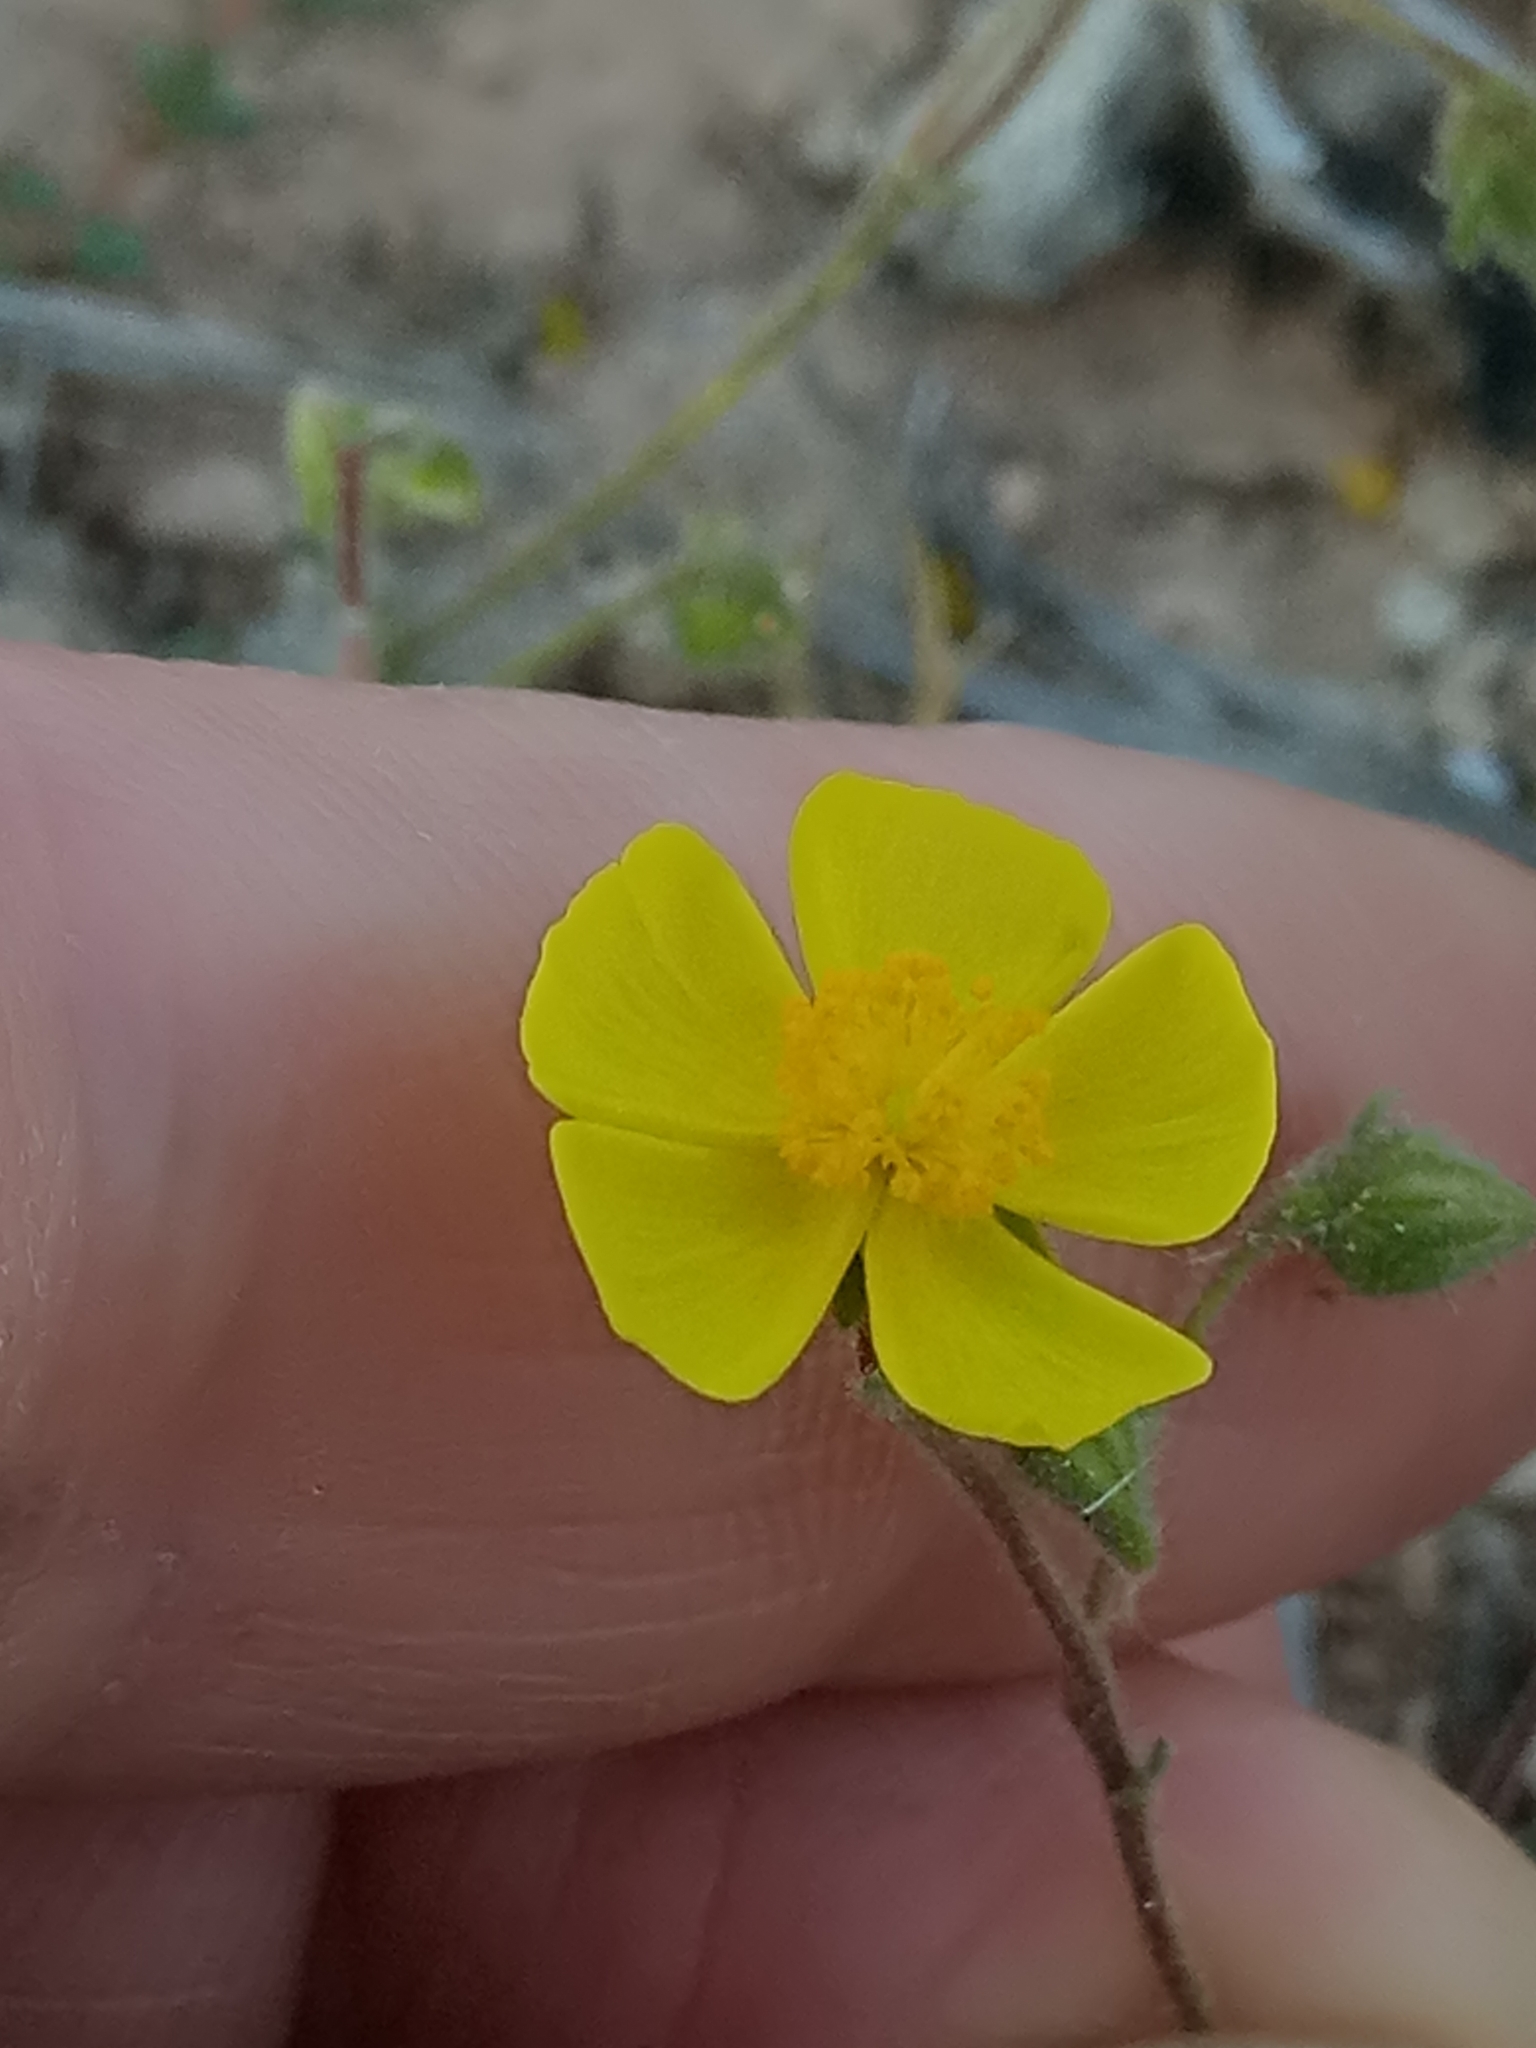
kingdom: Plantae
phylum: Tracheophyta
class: Magnoliopsida
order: Malvales
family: Cistaceae
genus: Fumana
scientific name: Fumana thymifolia
